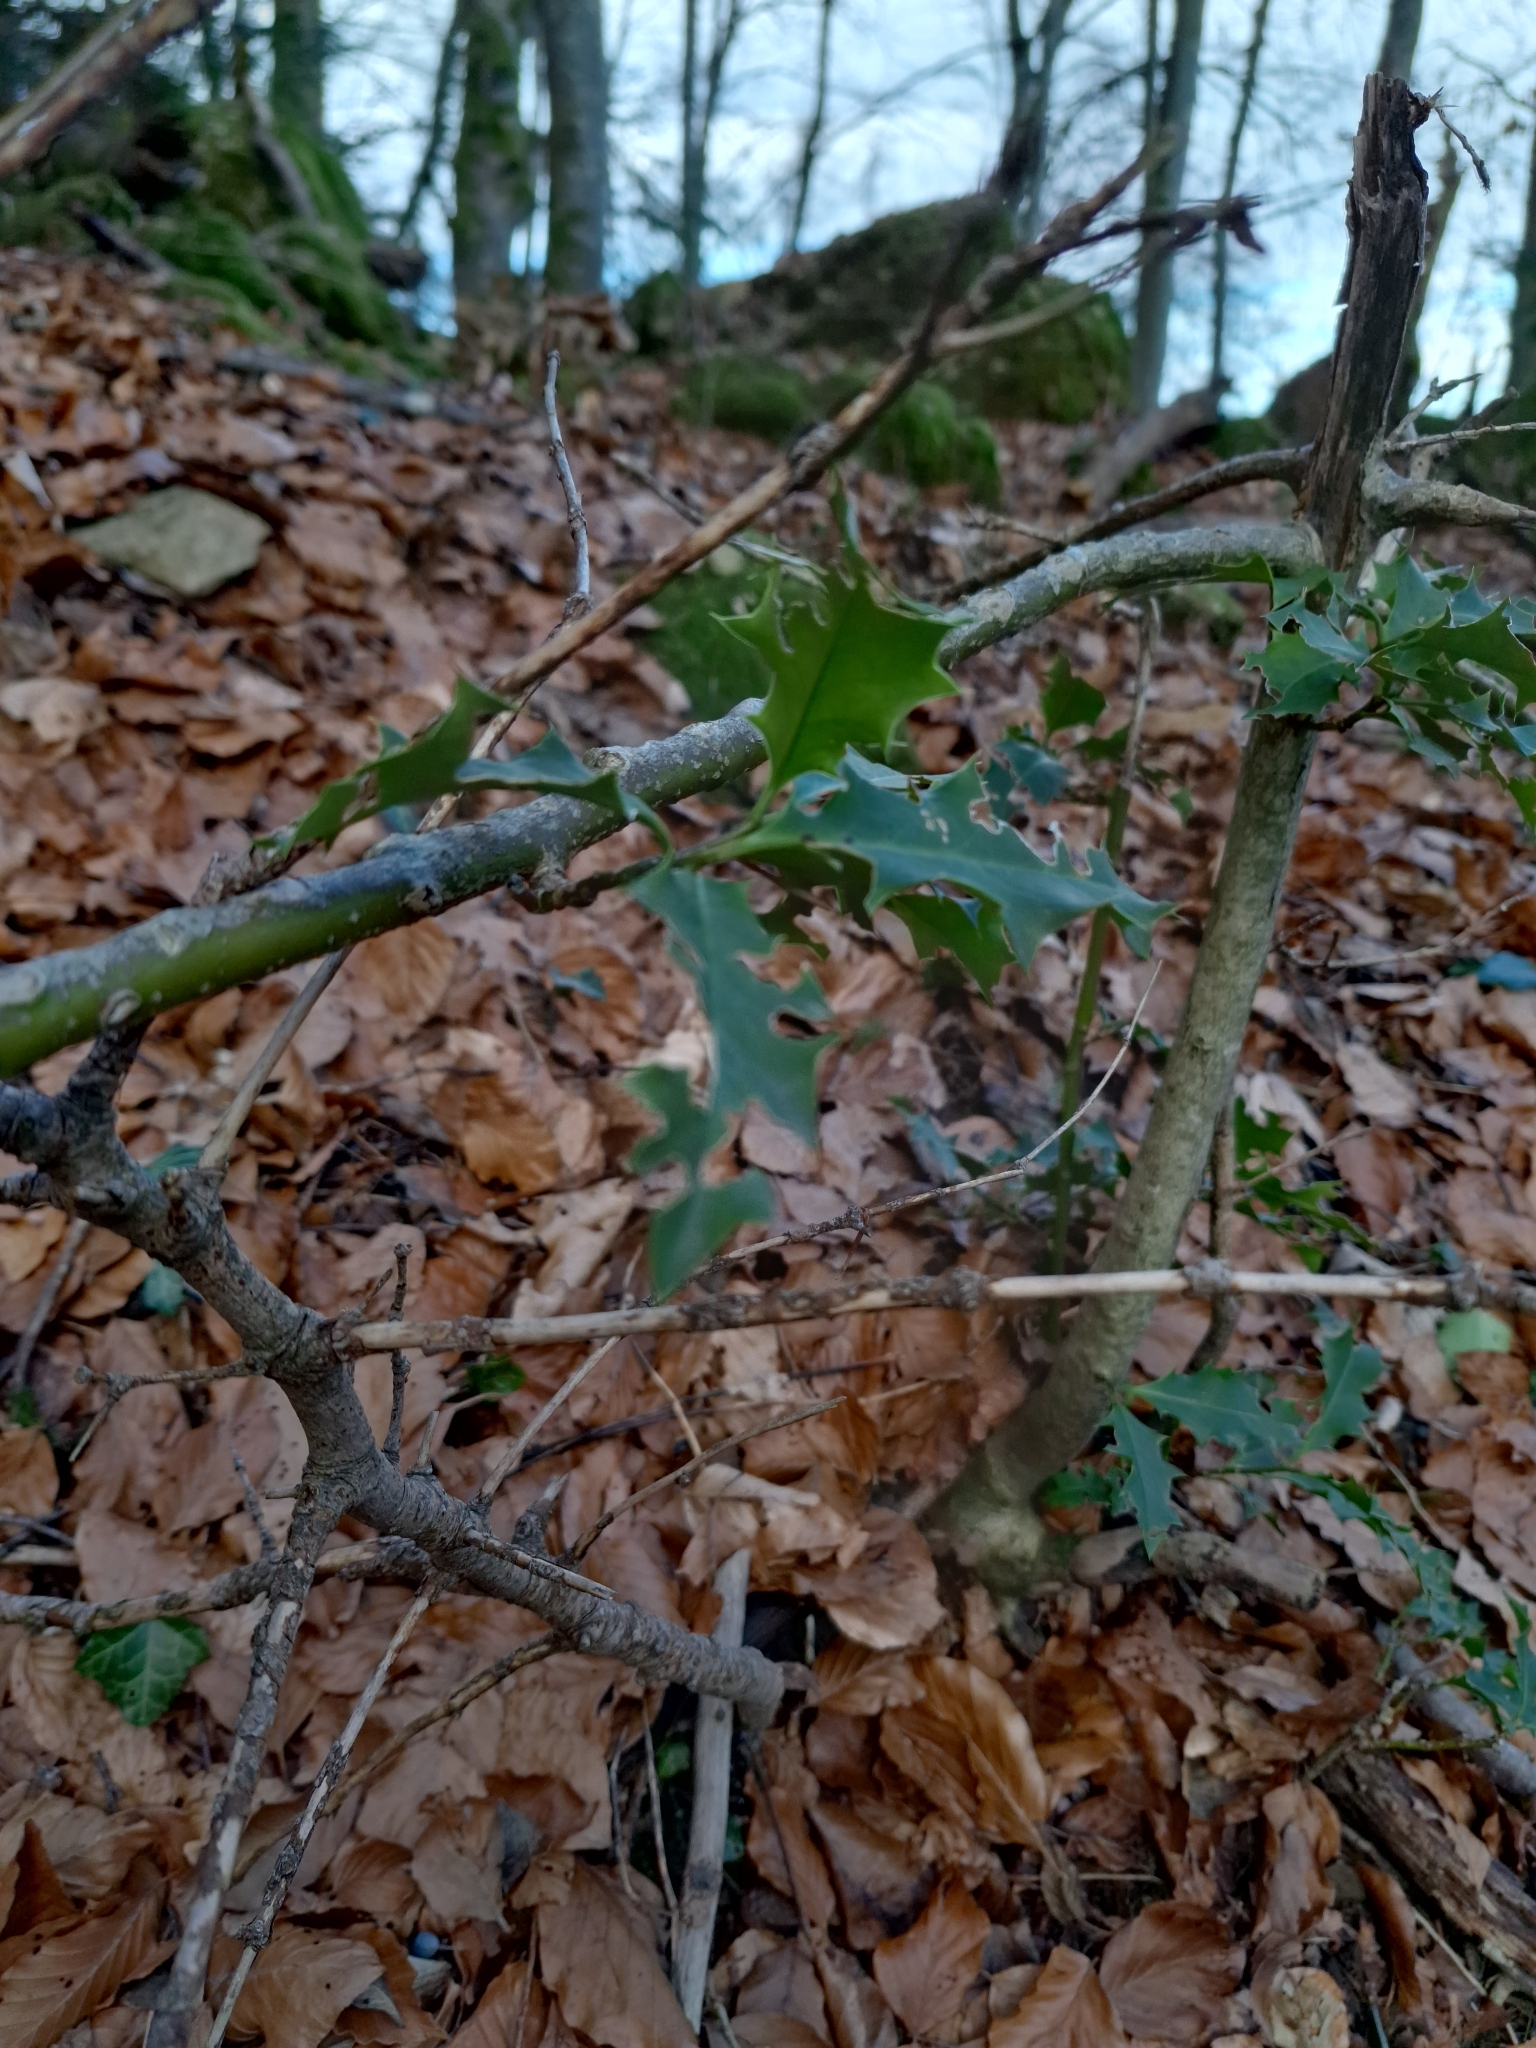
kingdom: Plantae
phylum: Tracheophyta
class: Magnoliopsida
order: Aquifoliales
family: Aquifoliaceae
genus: Ilex
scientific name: Ilex aquifolium
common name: English holly
